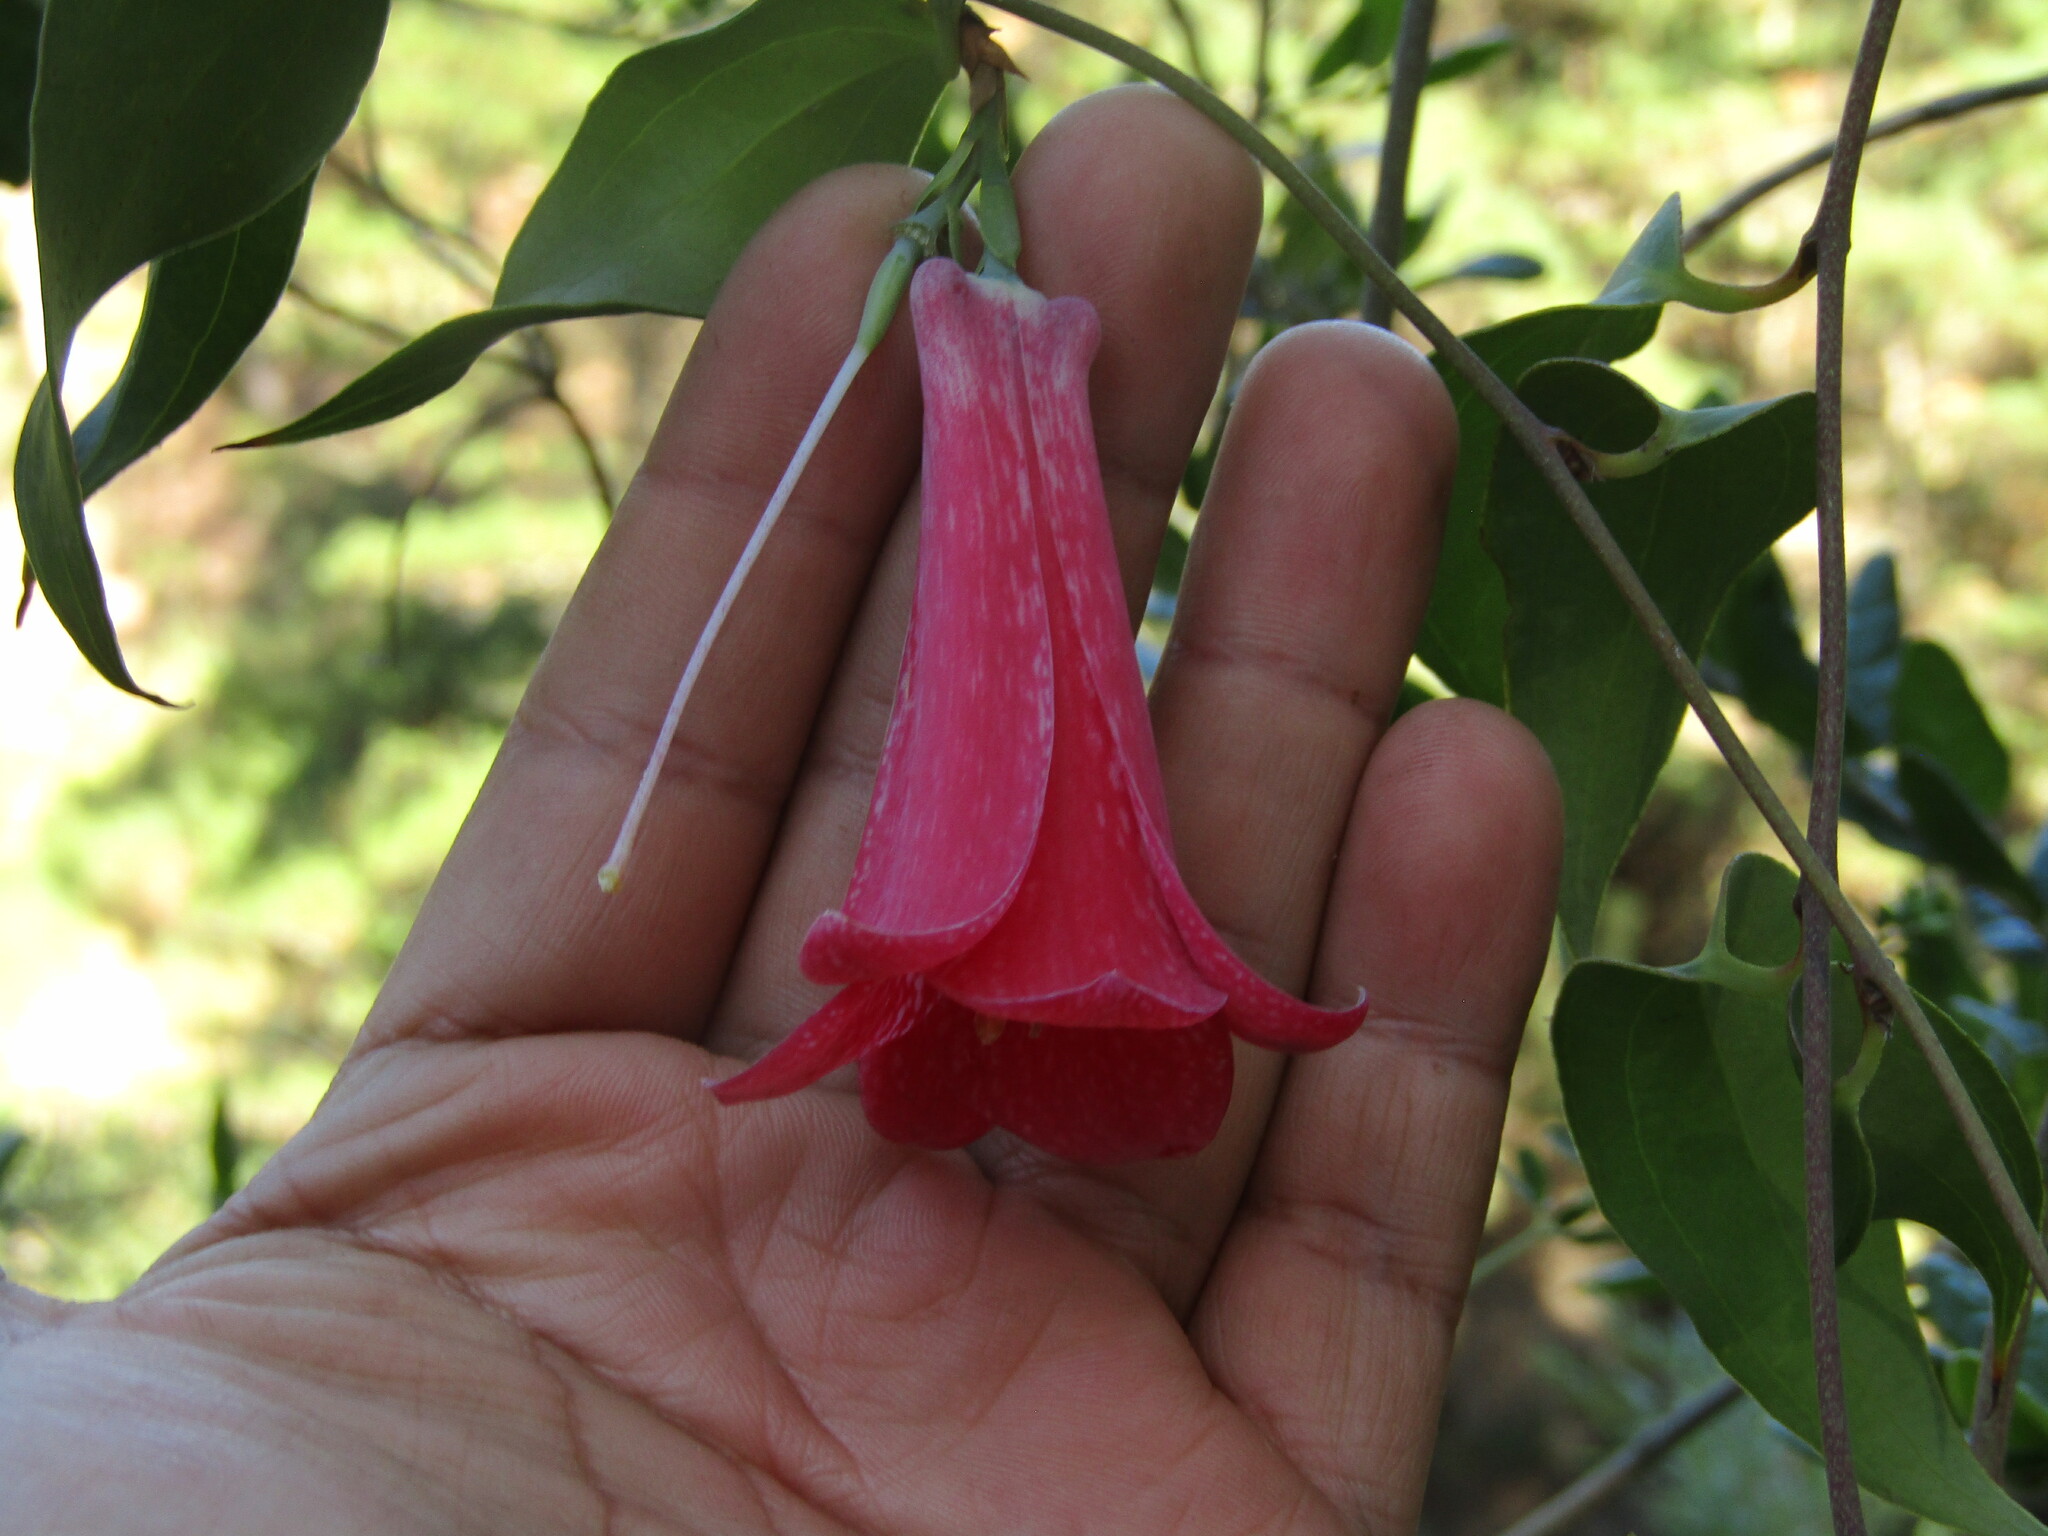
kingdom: Plantae
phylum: Tracheophyta
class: Liliopsida
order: Liliales
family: Philesiaceae
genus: Lapageria
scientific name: Lapageria rosea
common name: Chilean-bellflower
